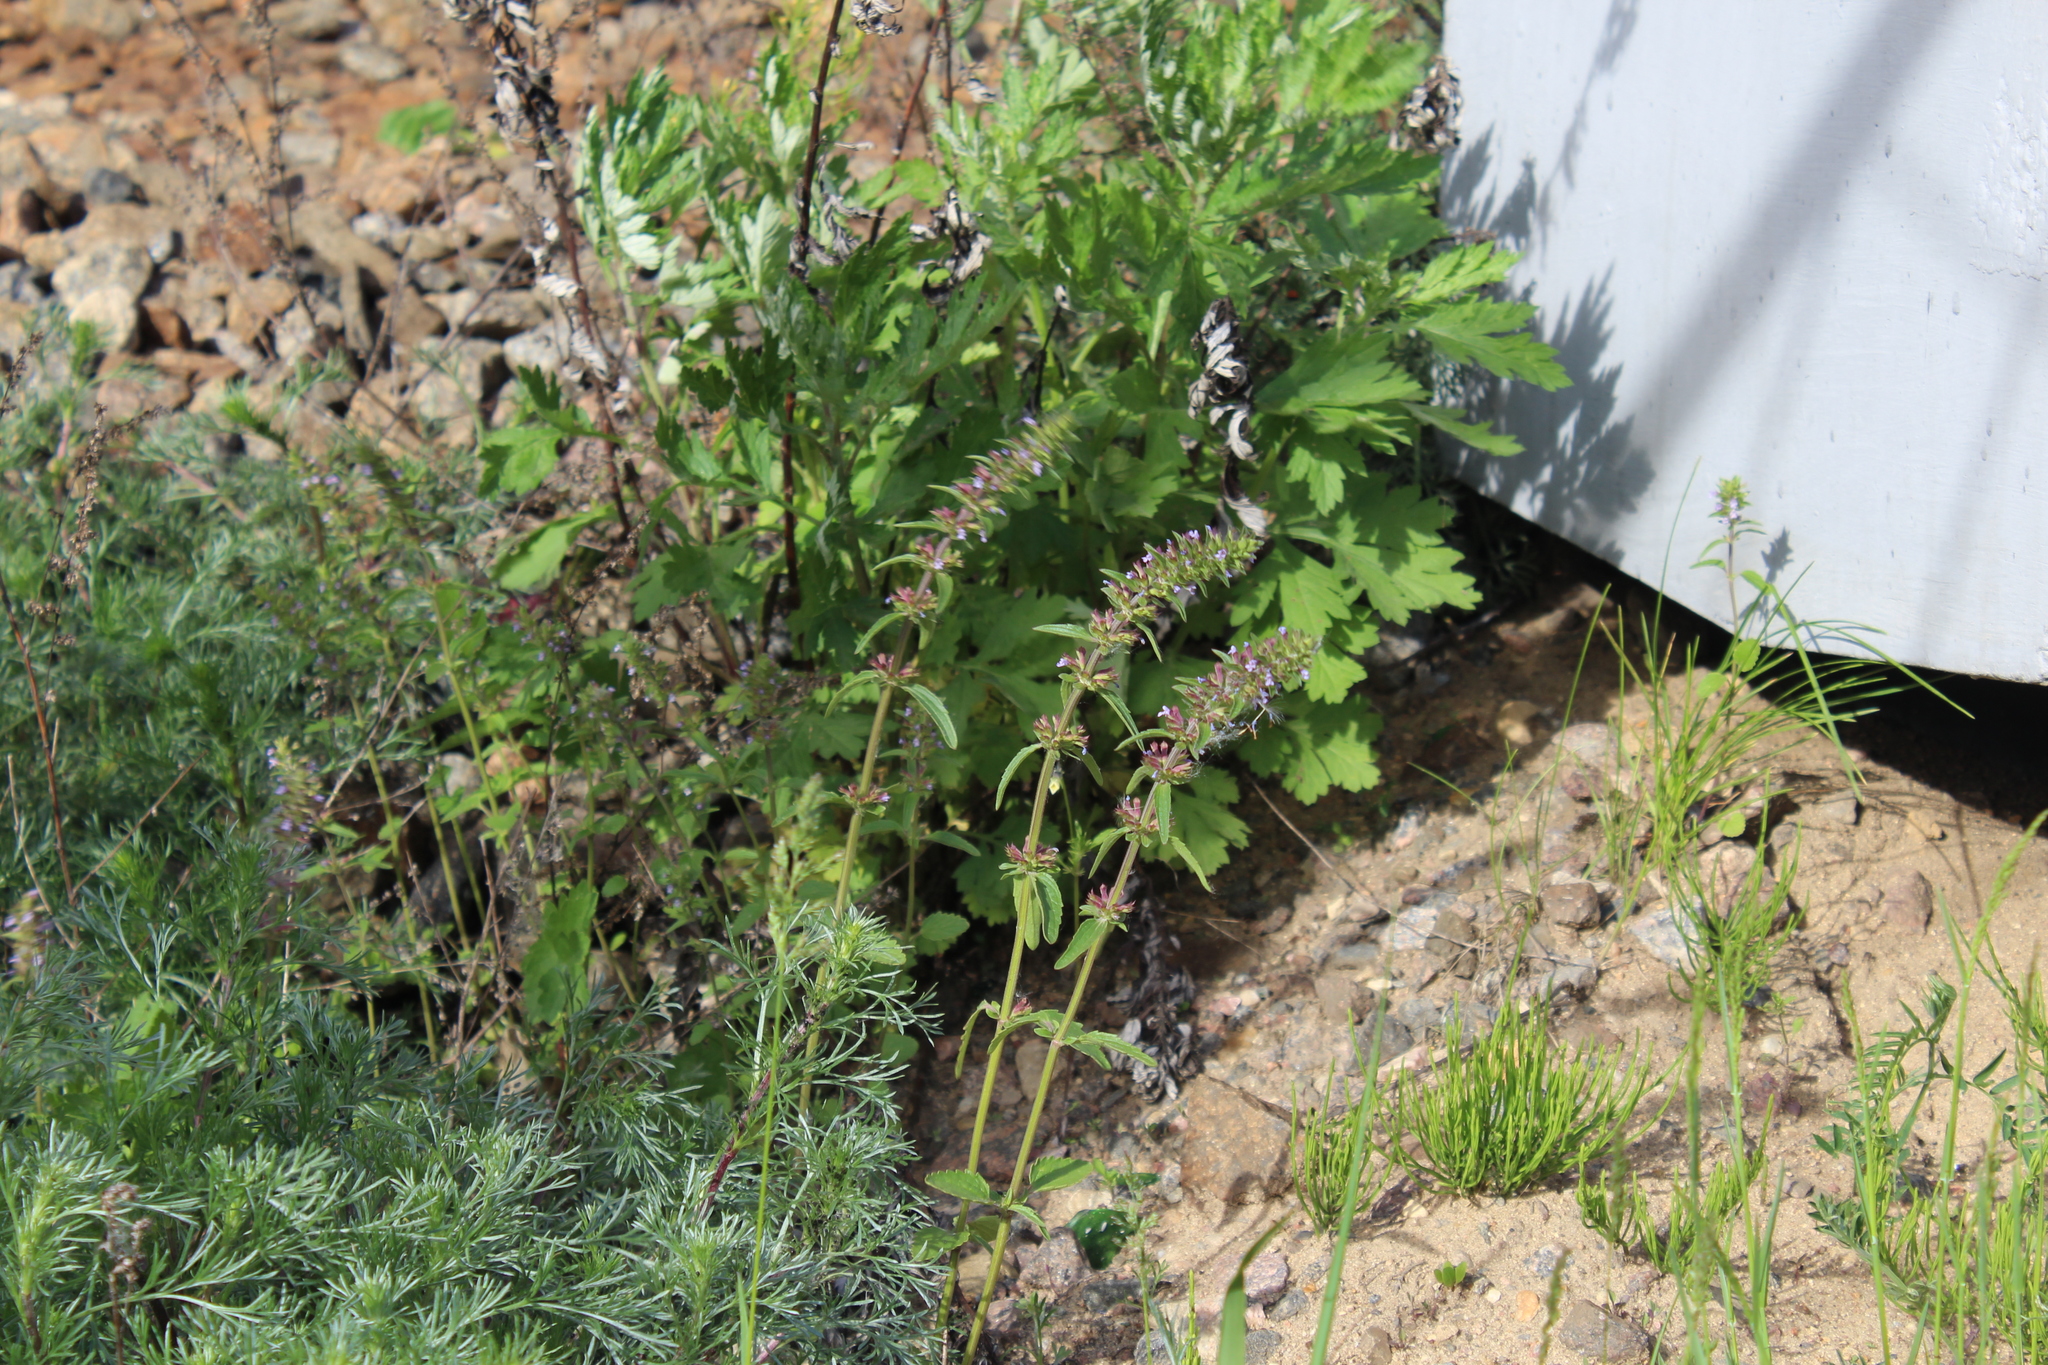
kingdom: Plantae
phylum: Tracheophyta
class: Magnoliopsida
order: Lamiales
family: Lamiaceae
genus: Dracocephalum
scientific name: Dracocephalum thymiflorum
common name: Thymeleaf dragonhead
